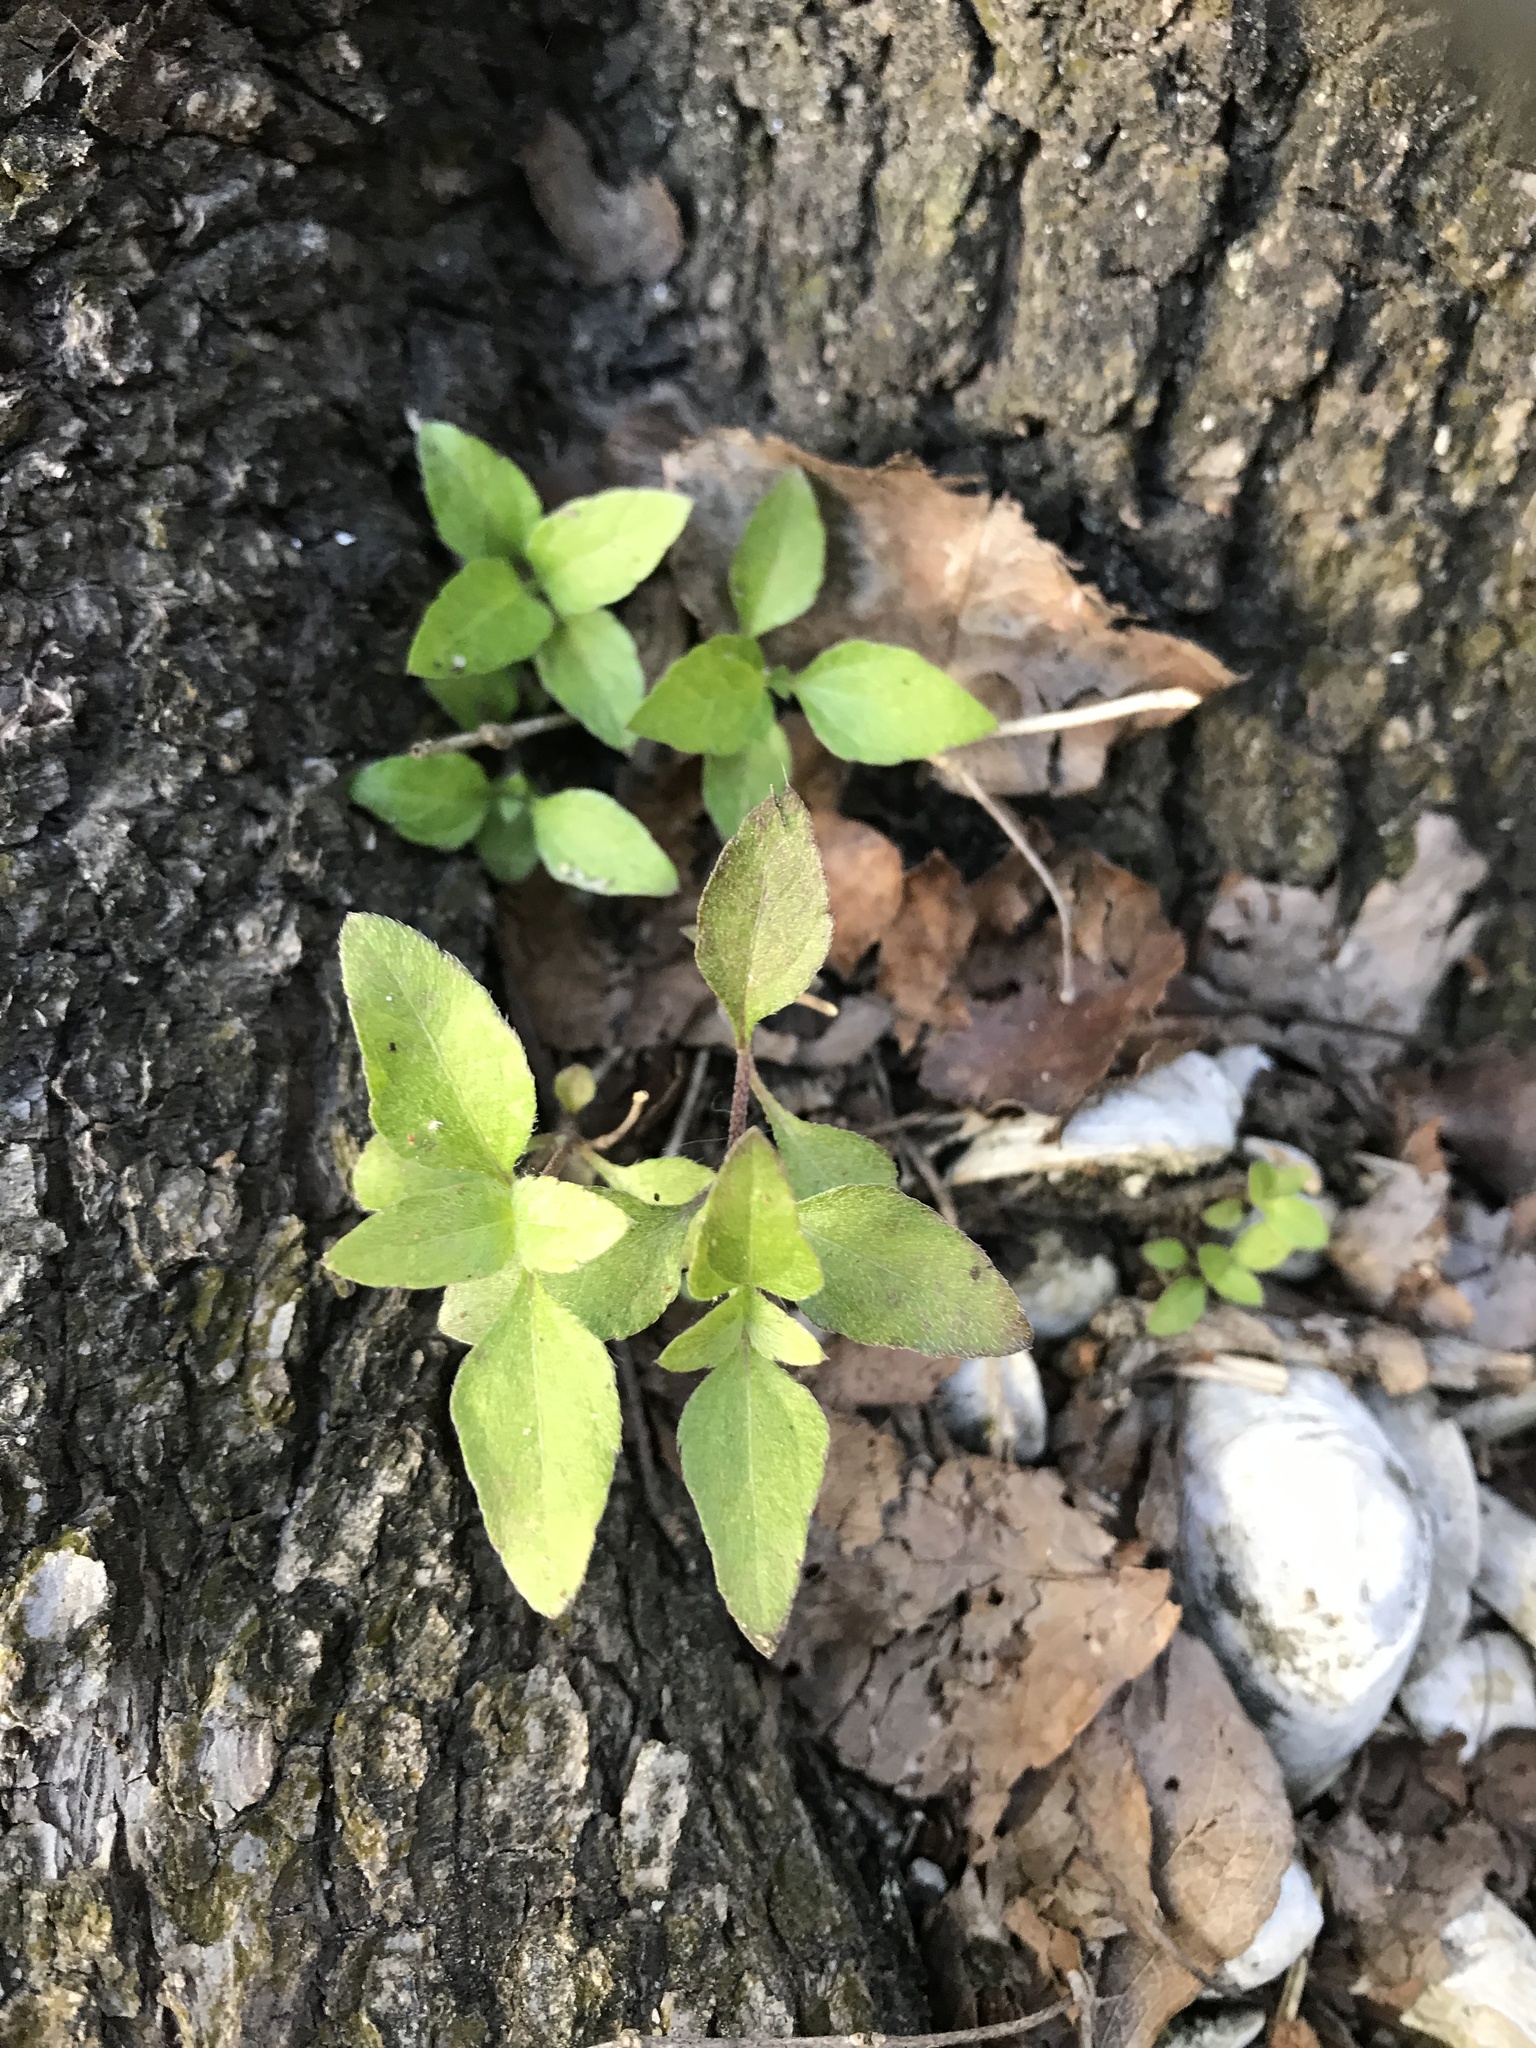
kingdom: Plantae
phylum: Tracheophyta
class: Magnoliopsida
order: Asterales
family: Asteraceae
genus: Calyptocarpus
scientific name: Calyptocarpus vialis
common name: Straggler daisy
